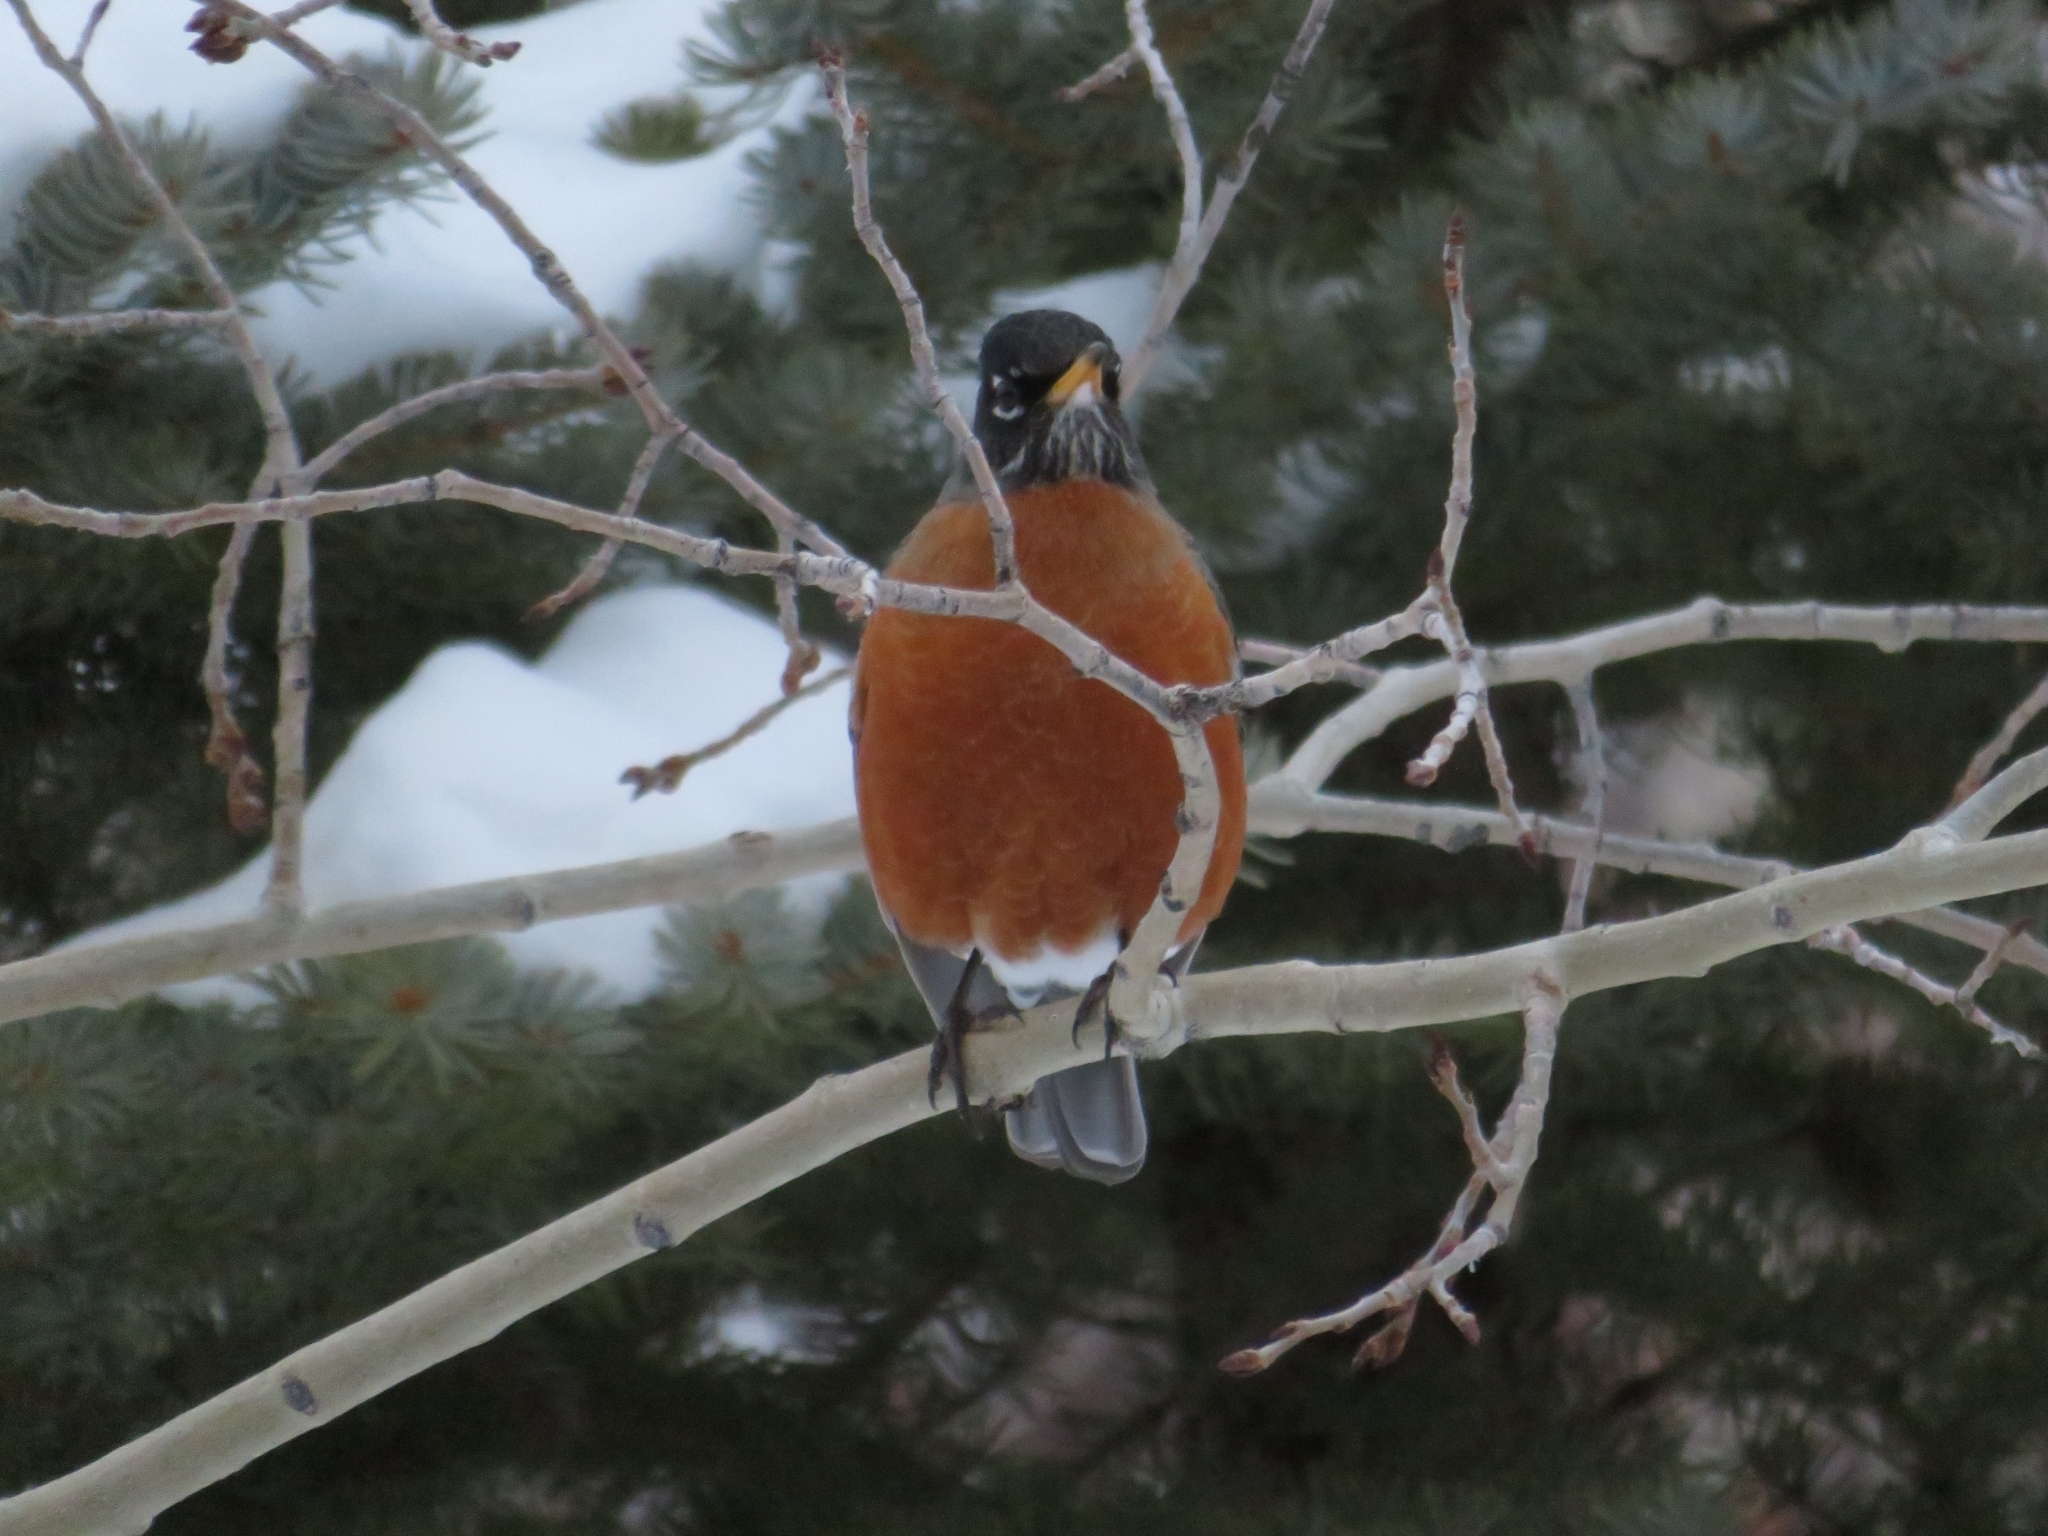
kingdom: Animalia
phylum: Chordata
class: Aves
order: Passeriformes
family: Turdidae
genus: Turdus
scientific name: Turdus migratorius
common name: American robin
